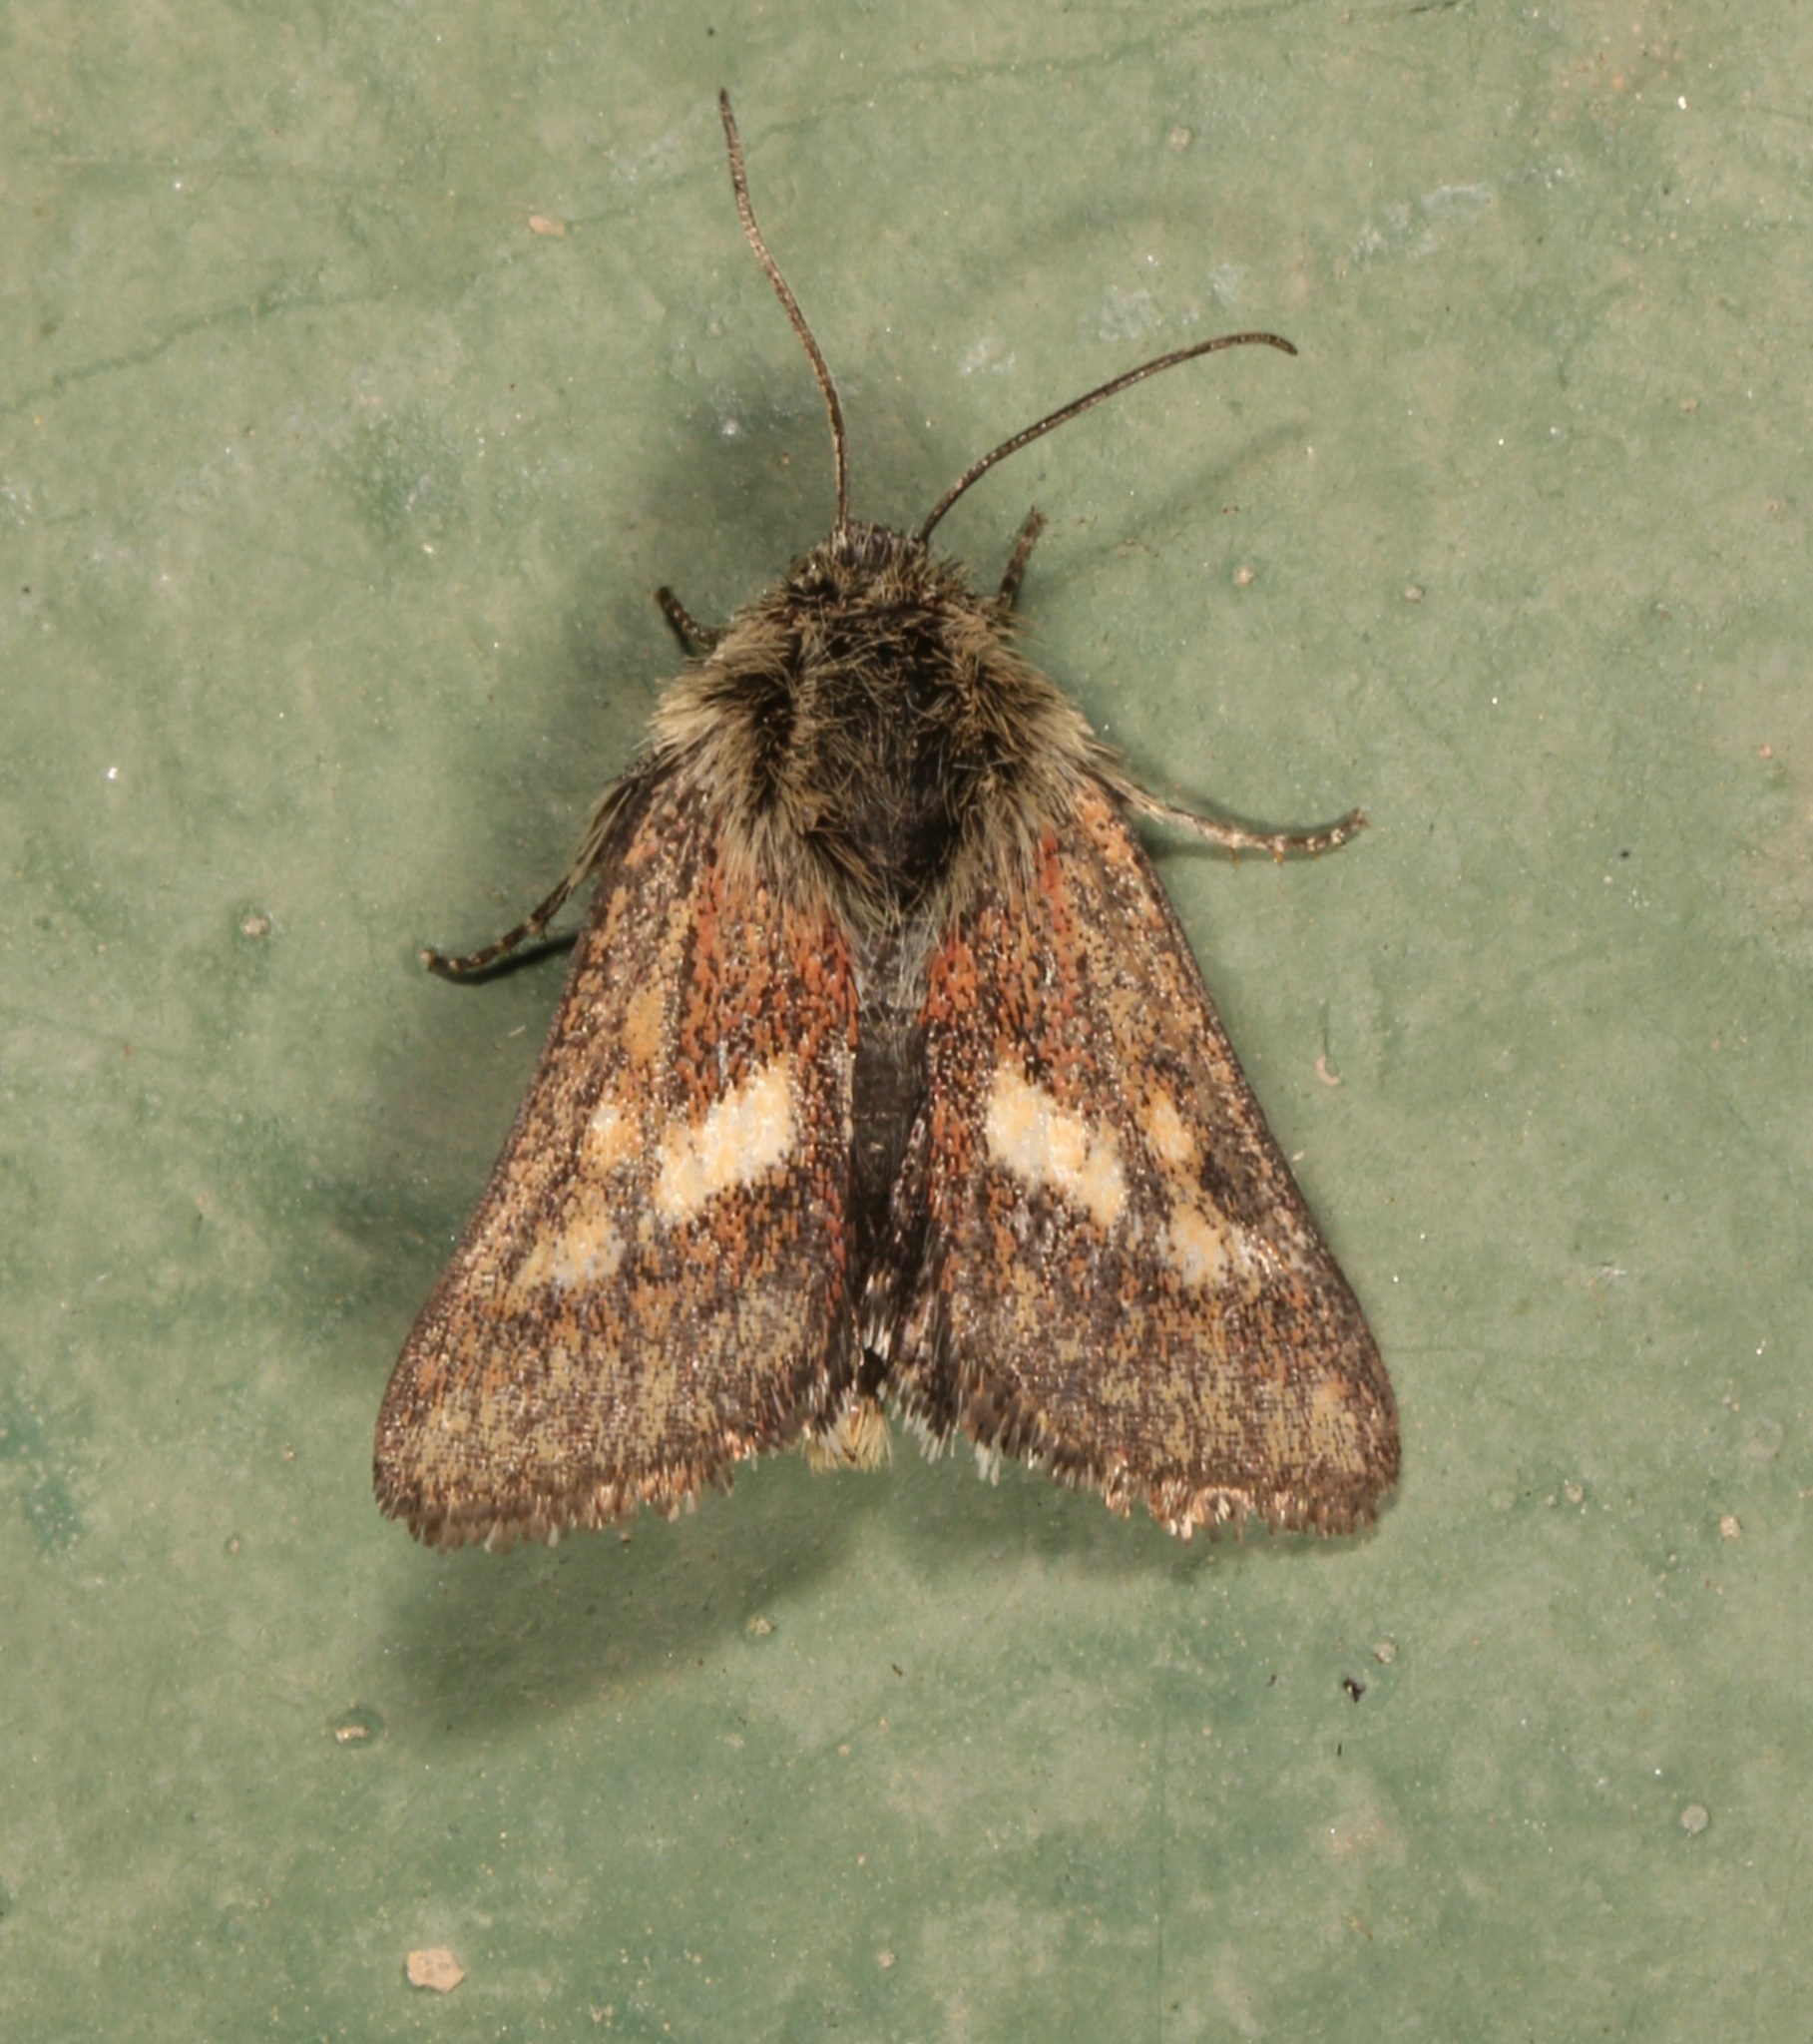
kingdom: Animalia
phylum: Arthropoda
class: Insecta
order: Lepidoptera
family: Noctuidae
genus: Heliolonche
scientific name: Heliolonche joaquinensis
